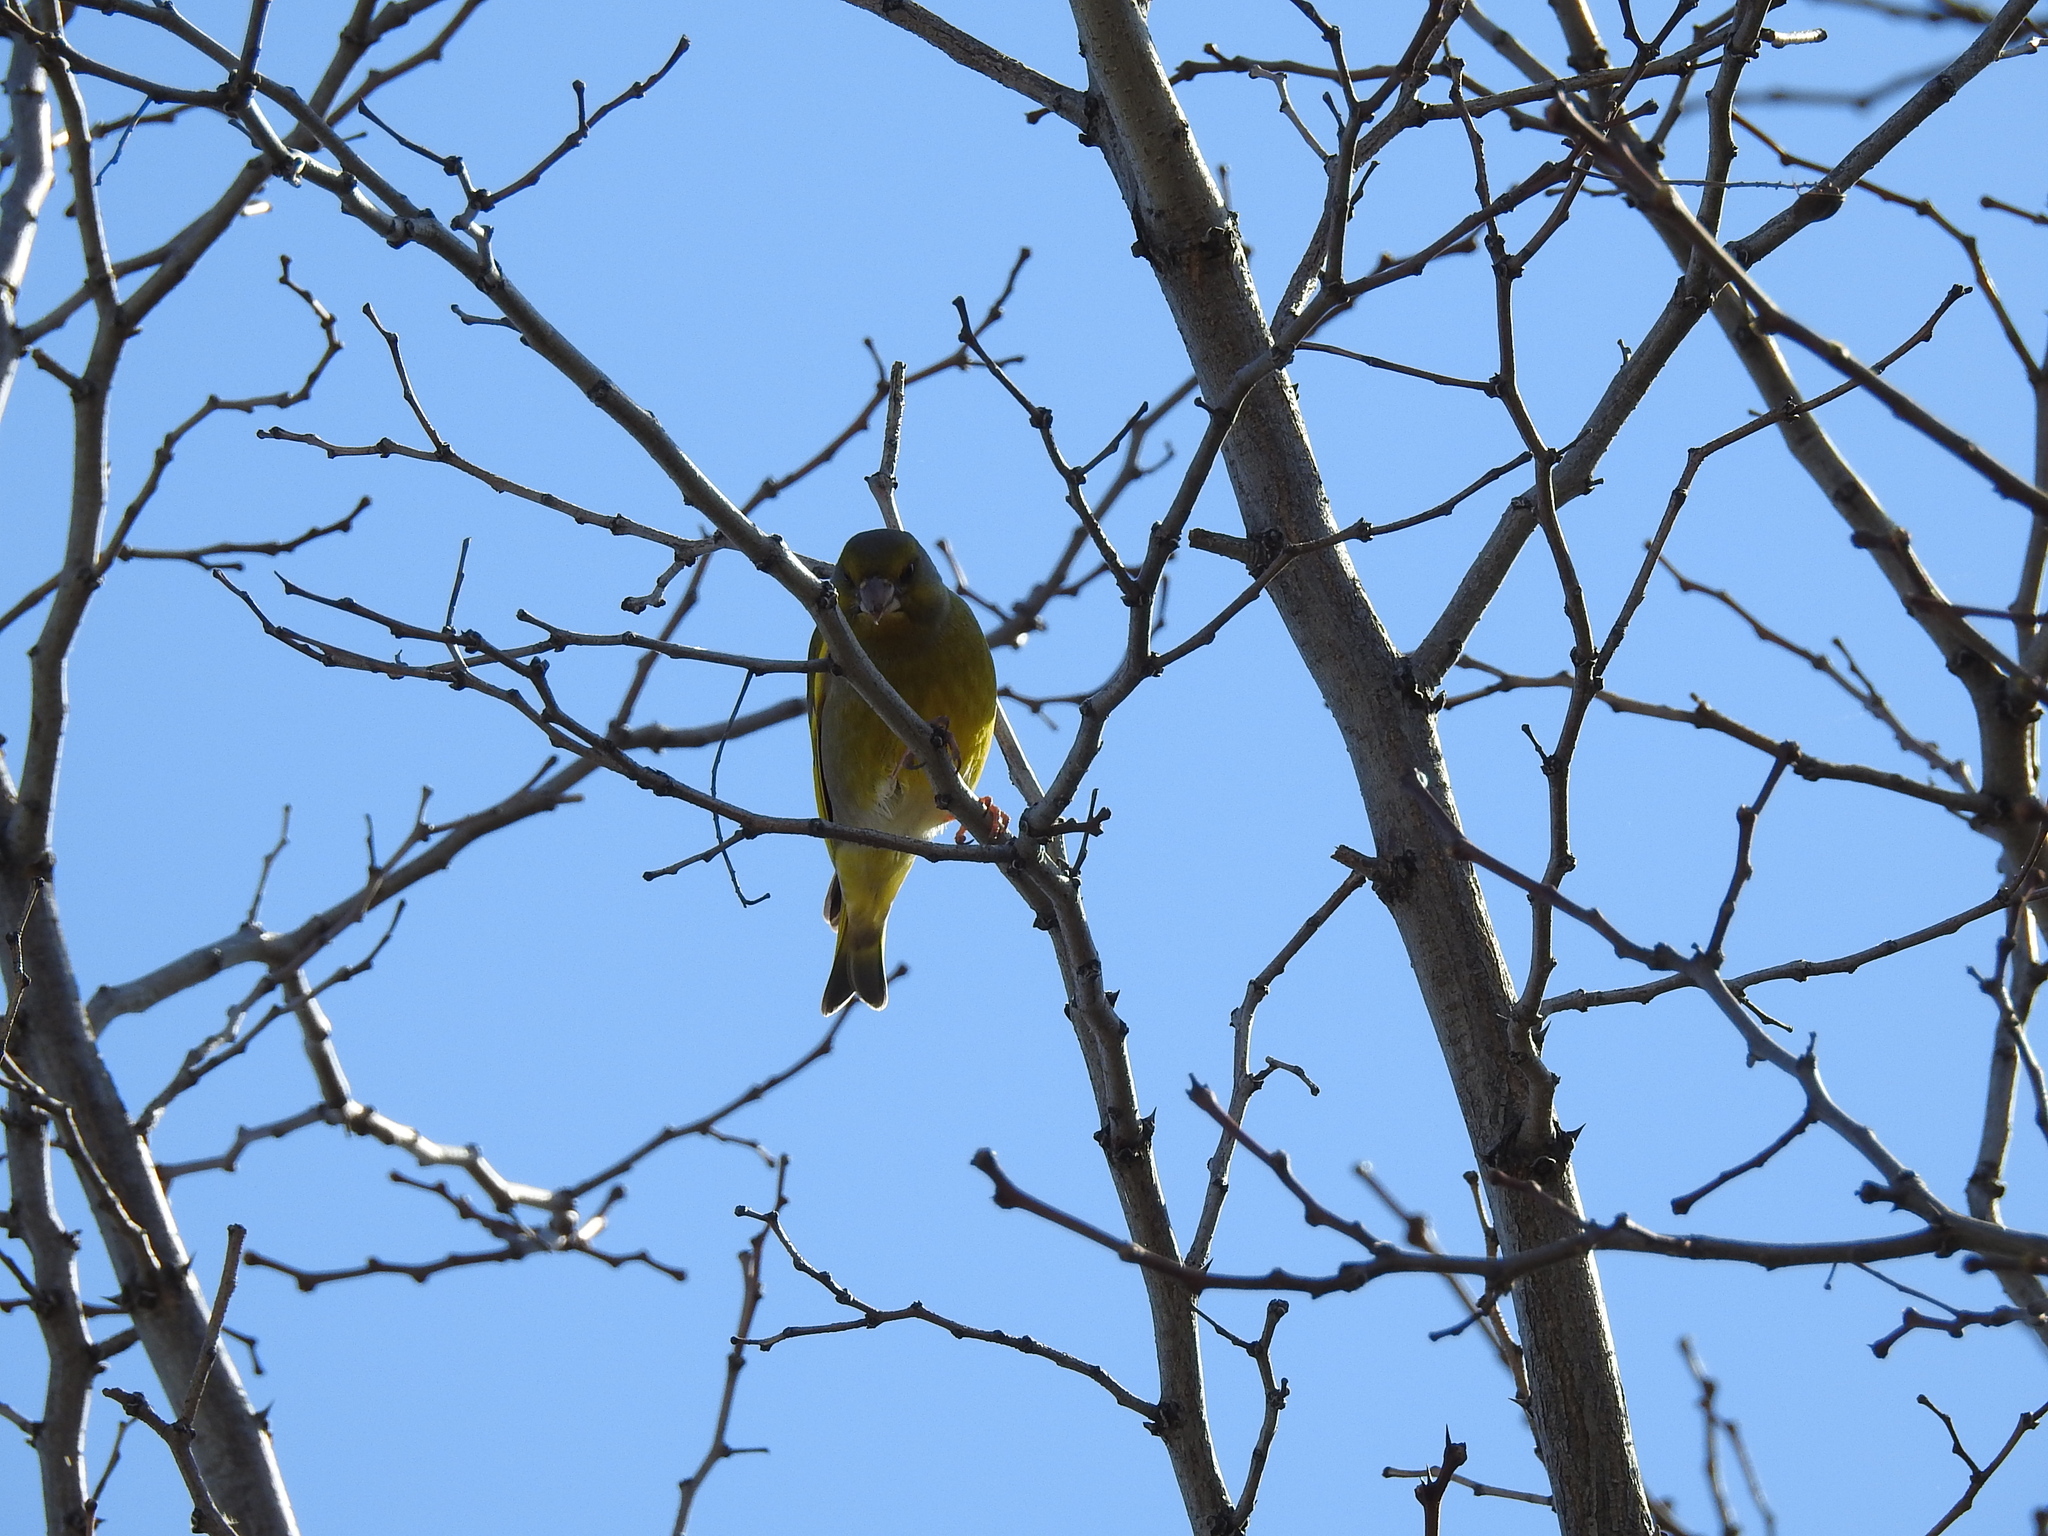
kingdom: Plantae
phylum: Tracheophyta
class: Liliopsida
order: Poales
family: Poaceae
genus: Chloris
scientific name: Chloris chloris
